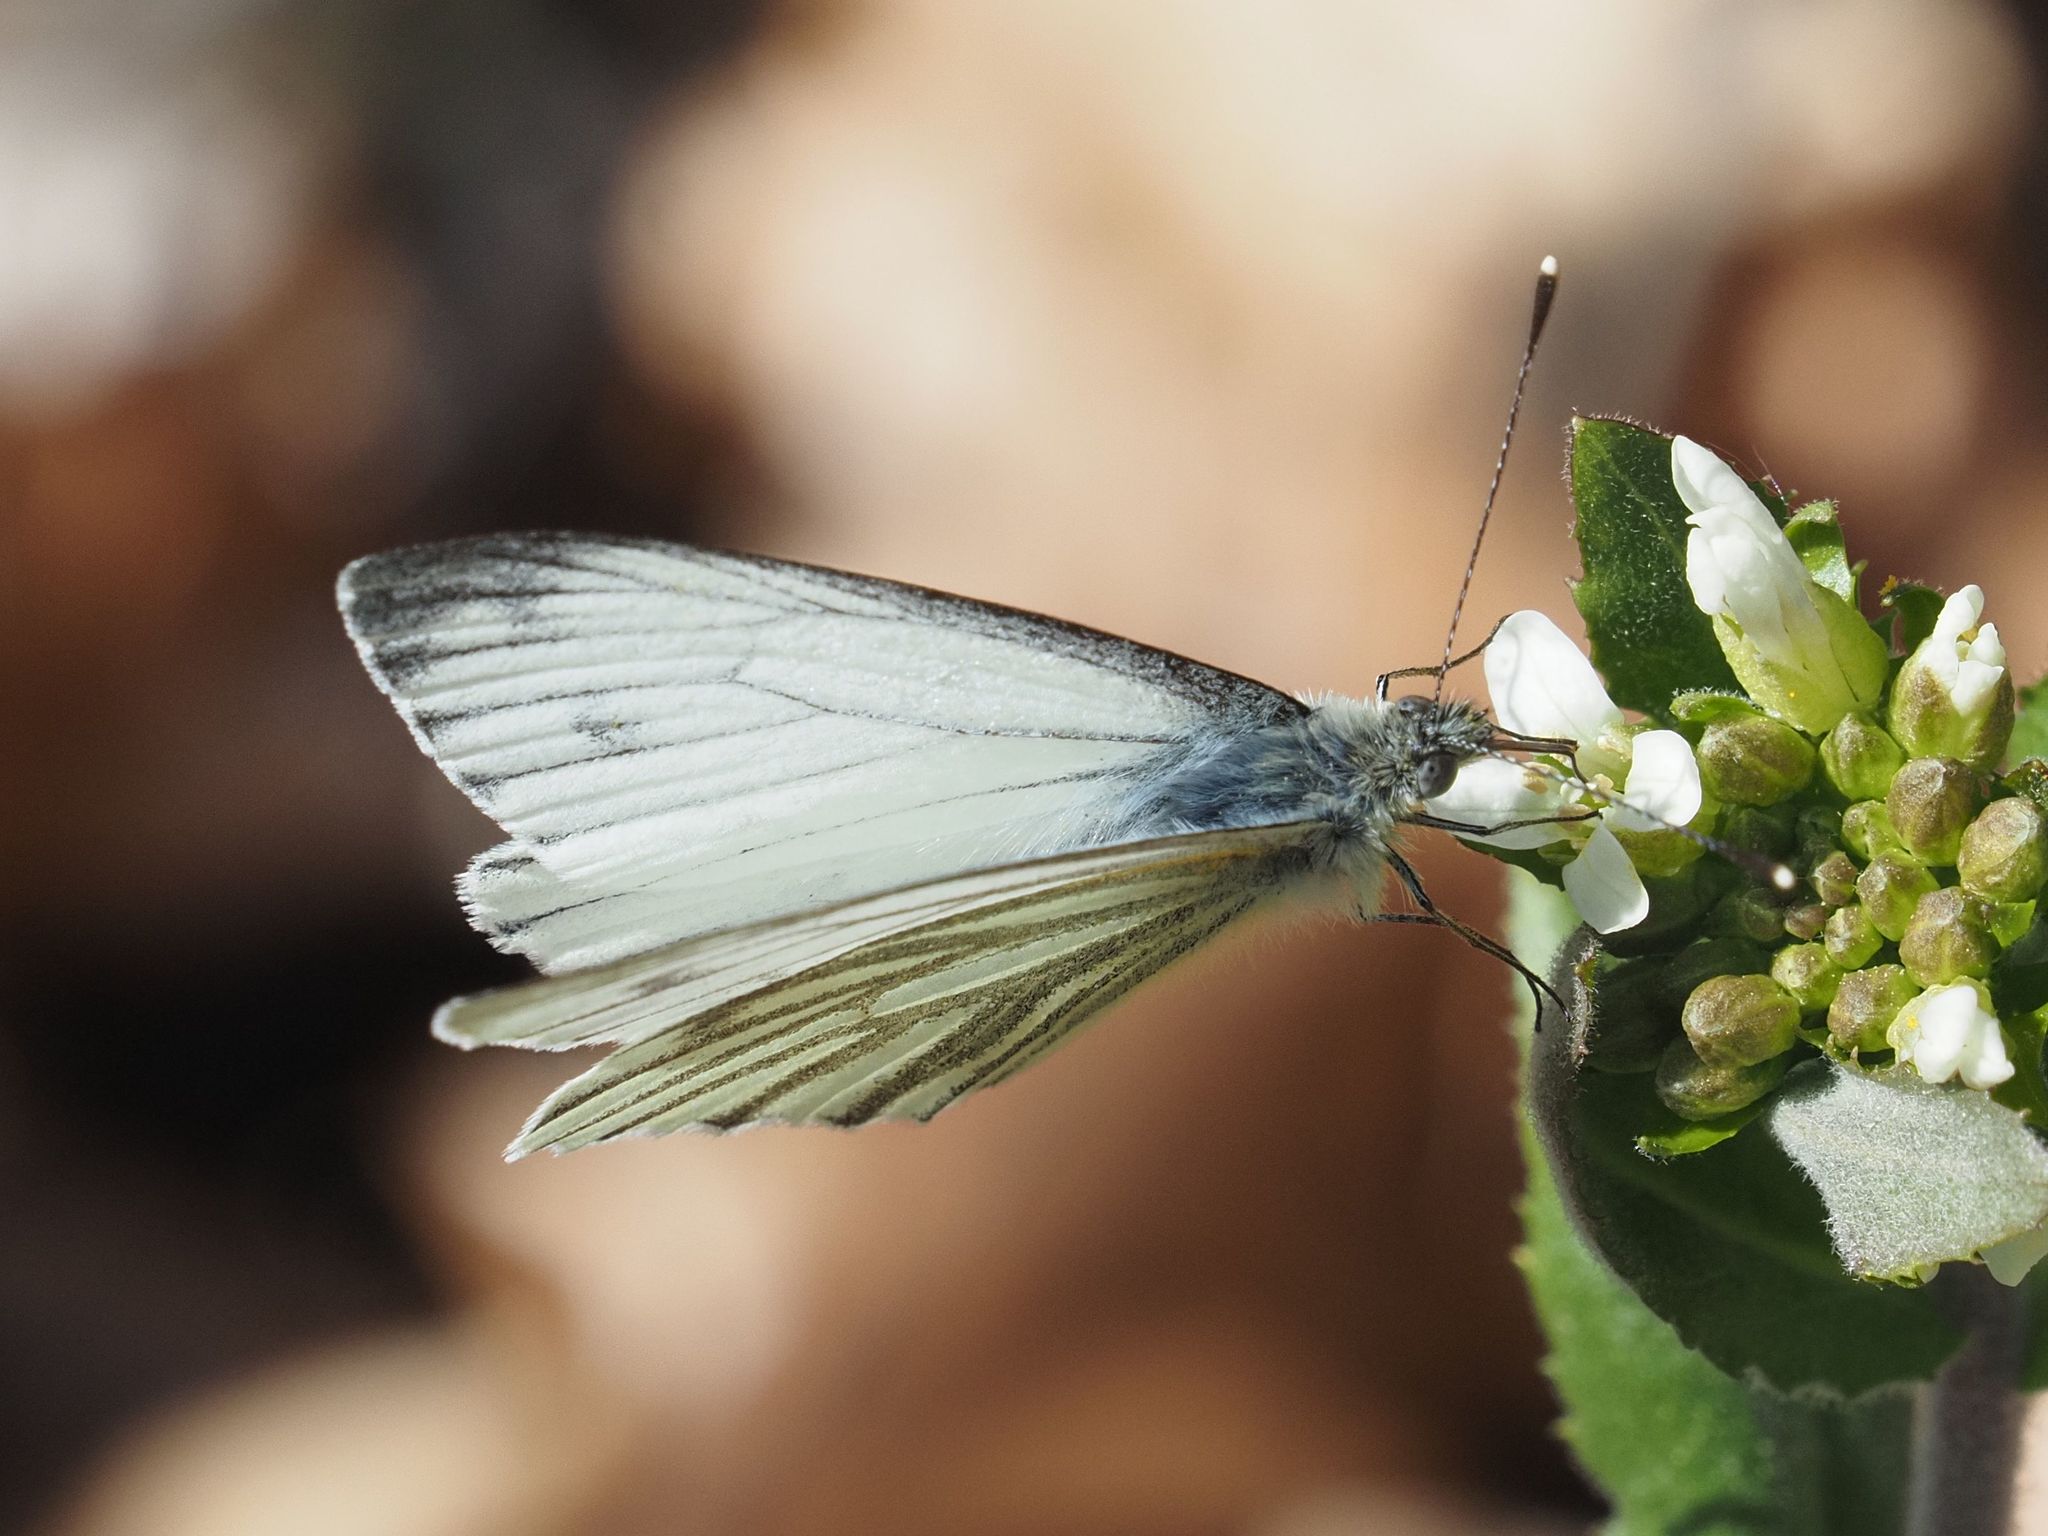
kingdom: Animalia
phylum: Arthropoda
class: Insecta
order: Lepidoptera
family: Pieridae
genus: Pieris
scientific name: Pieris napi
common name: Green-veined white
